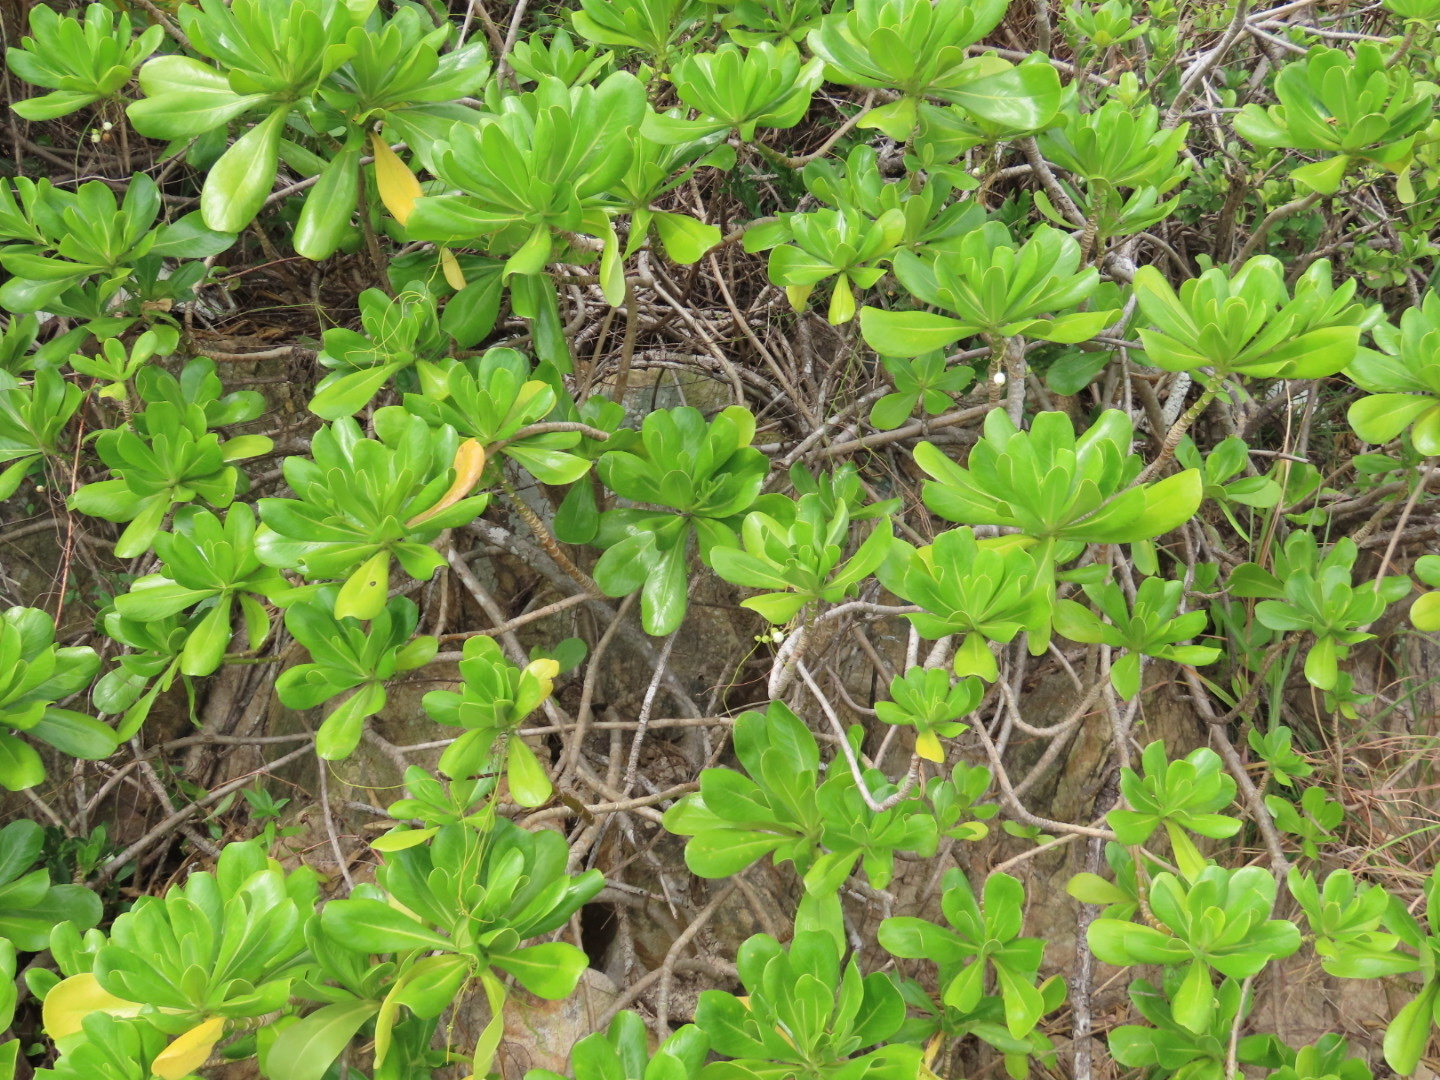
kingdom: Plantae
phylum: Tracheophyta
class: Magnoliopsida
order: Asterales
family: Goodeniaceae
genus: Scaevola
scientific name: Scaevola taccada
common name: Sea lettucetree
